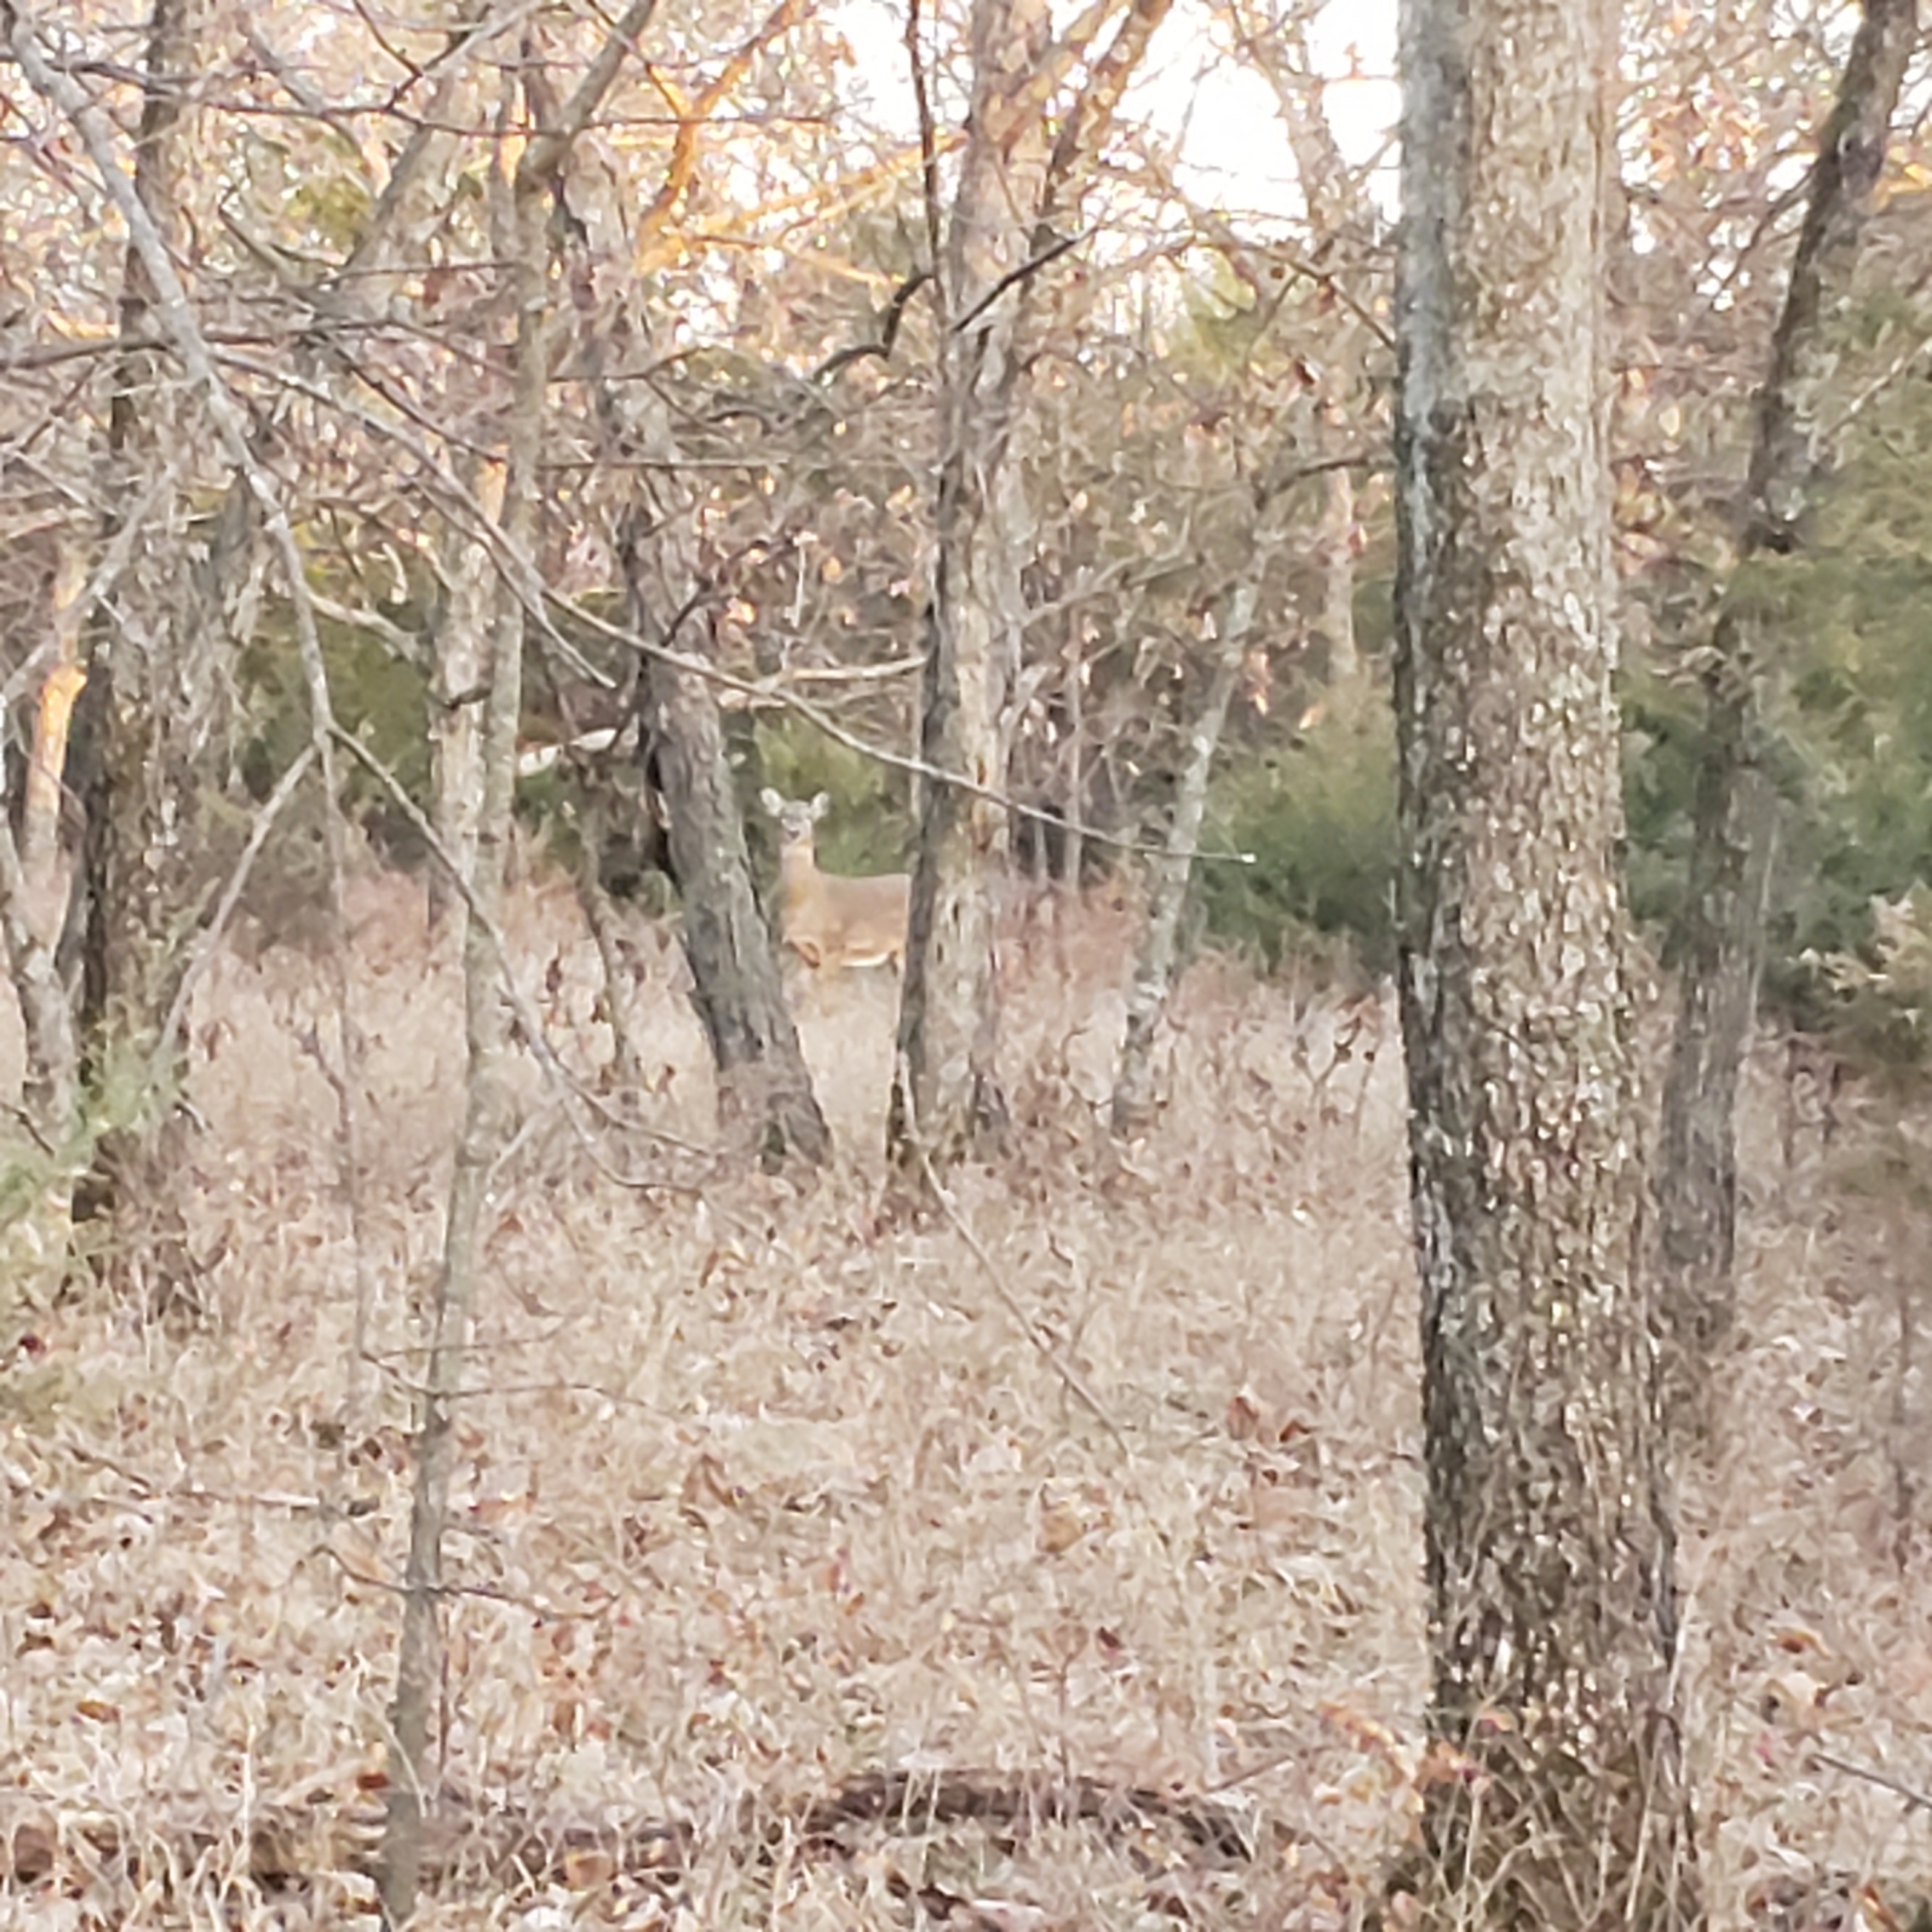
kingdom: Animalia
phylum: Chordata
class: Mammalia
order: Artiodactyla
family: Cervidae
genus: Odocoileus
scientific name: Odocoileus virginianus
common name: White-tailed deer
